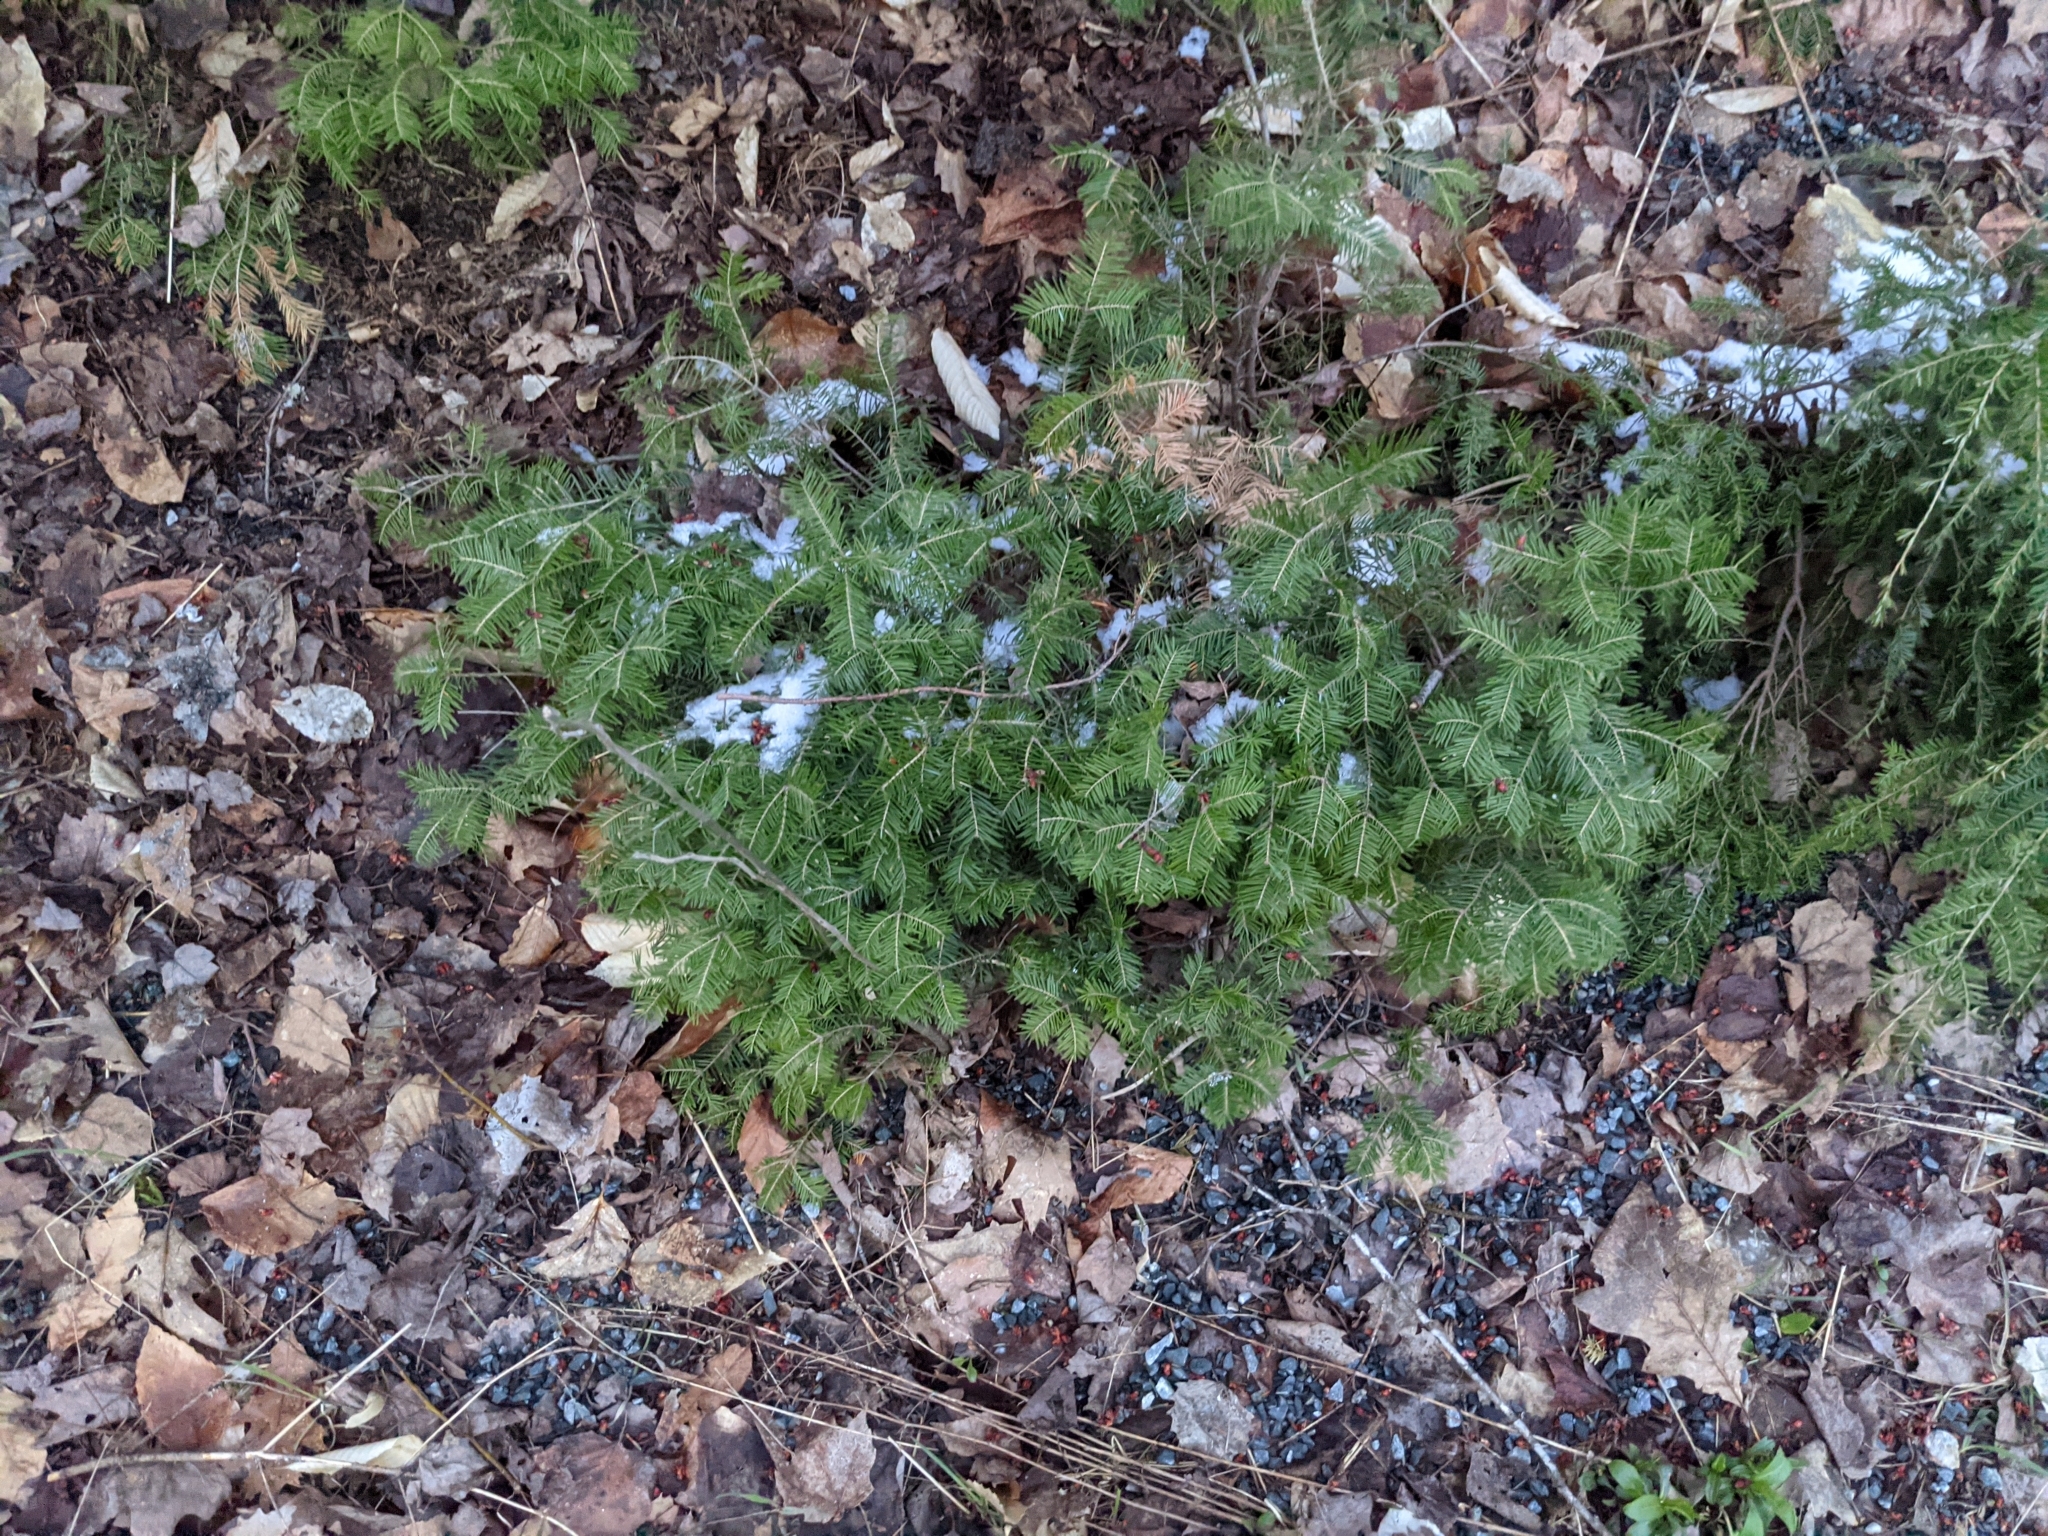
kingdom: Plantae
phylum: Tracheophyta
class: Pinopsida
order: Pinales
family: Pinaceae
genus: Abies
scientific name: Abies balsamea
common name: Balsam fir
